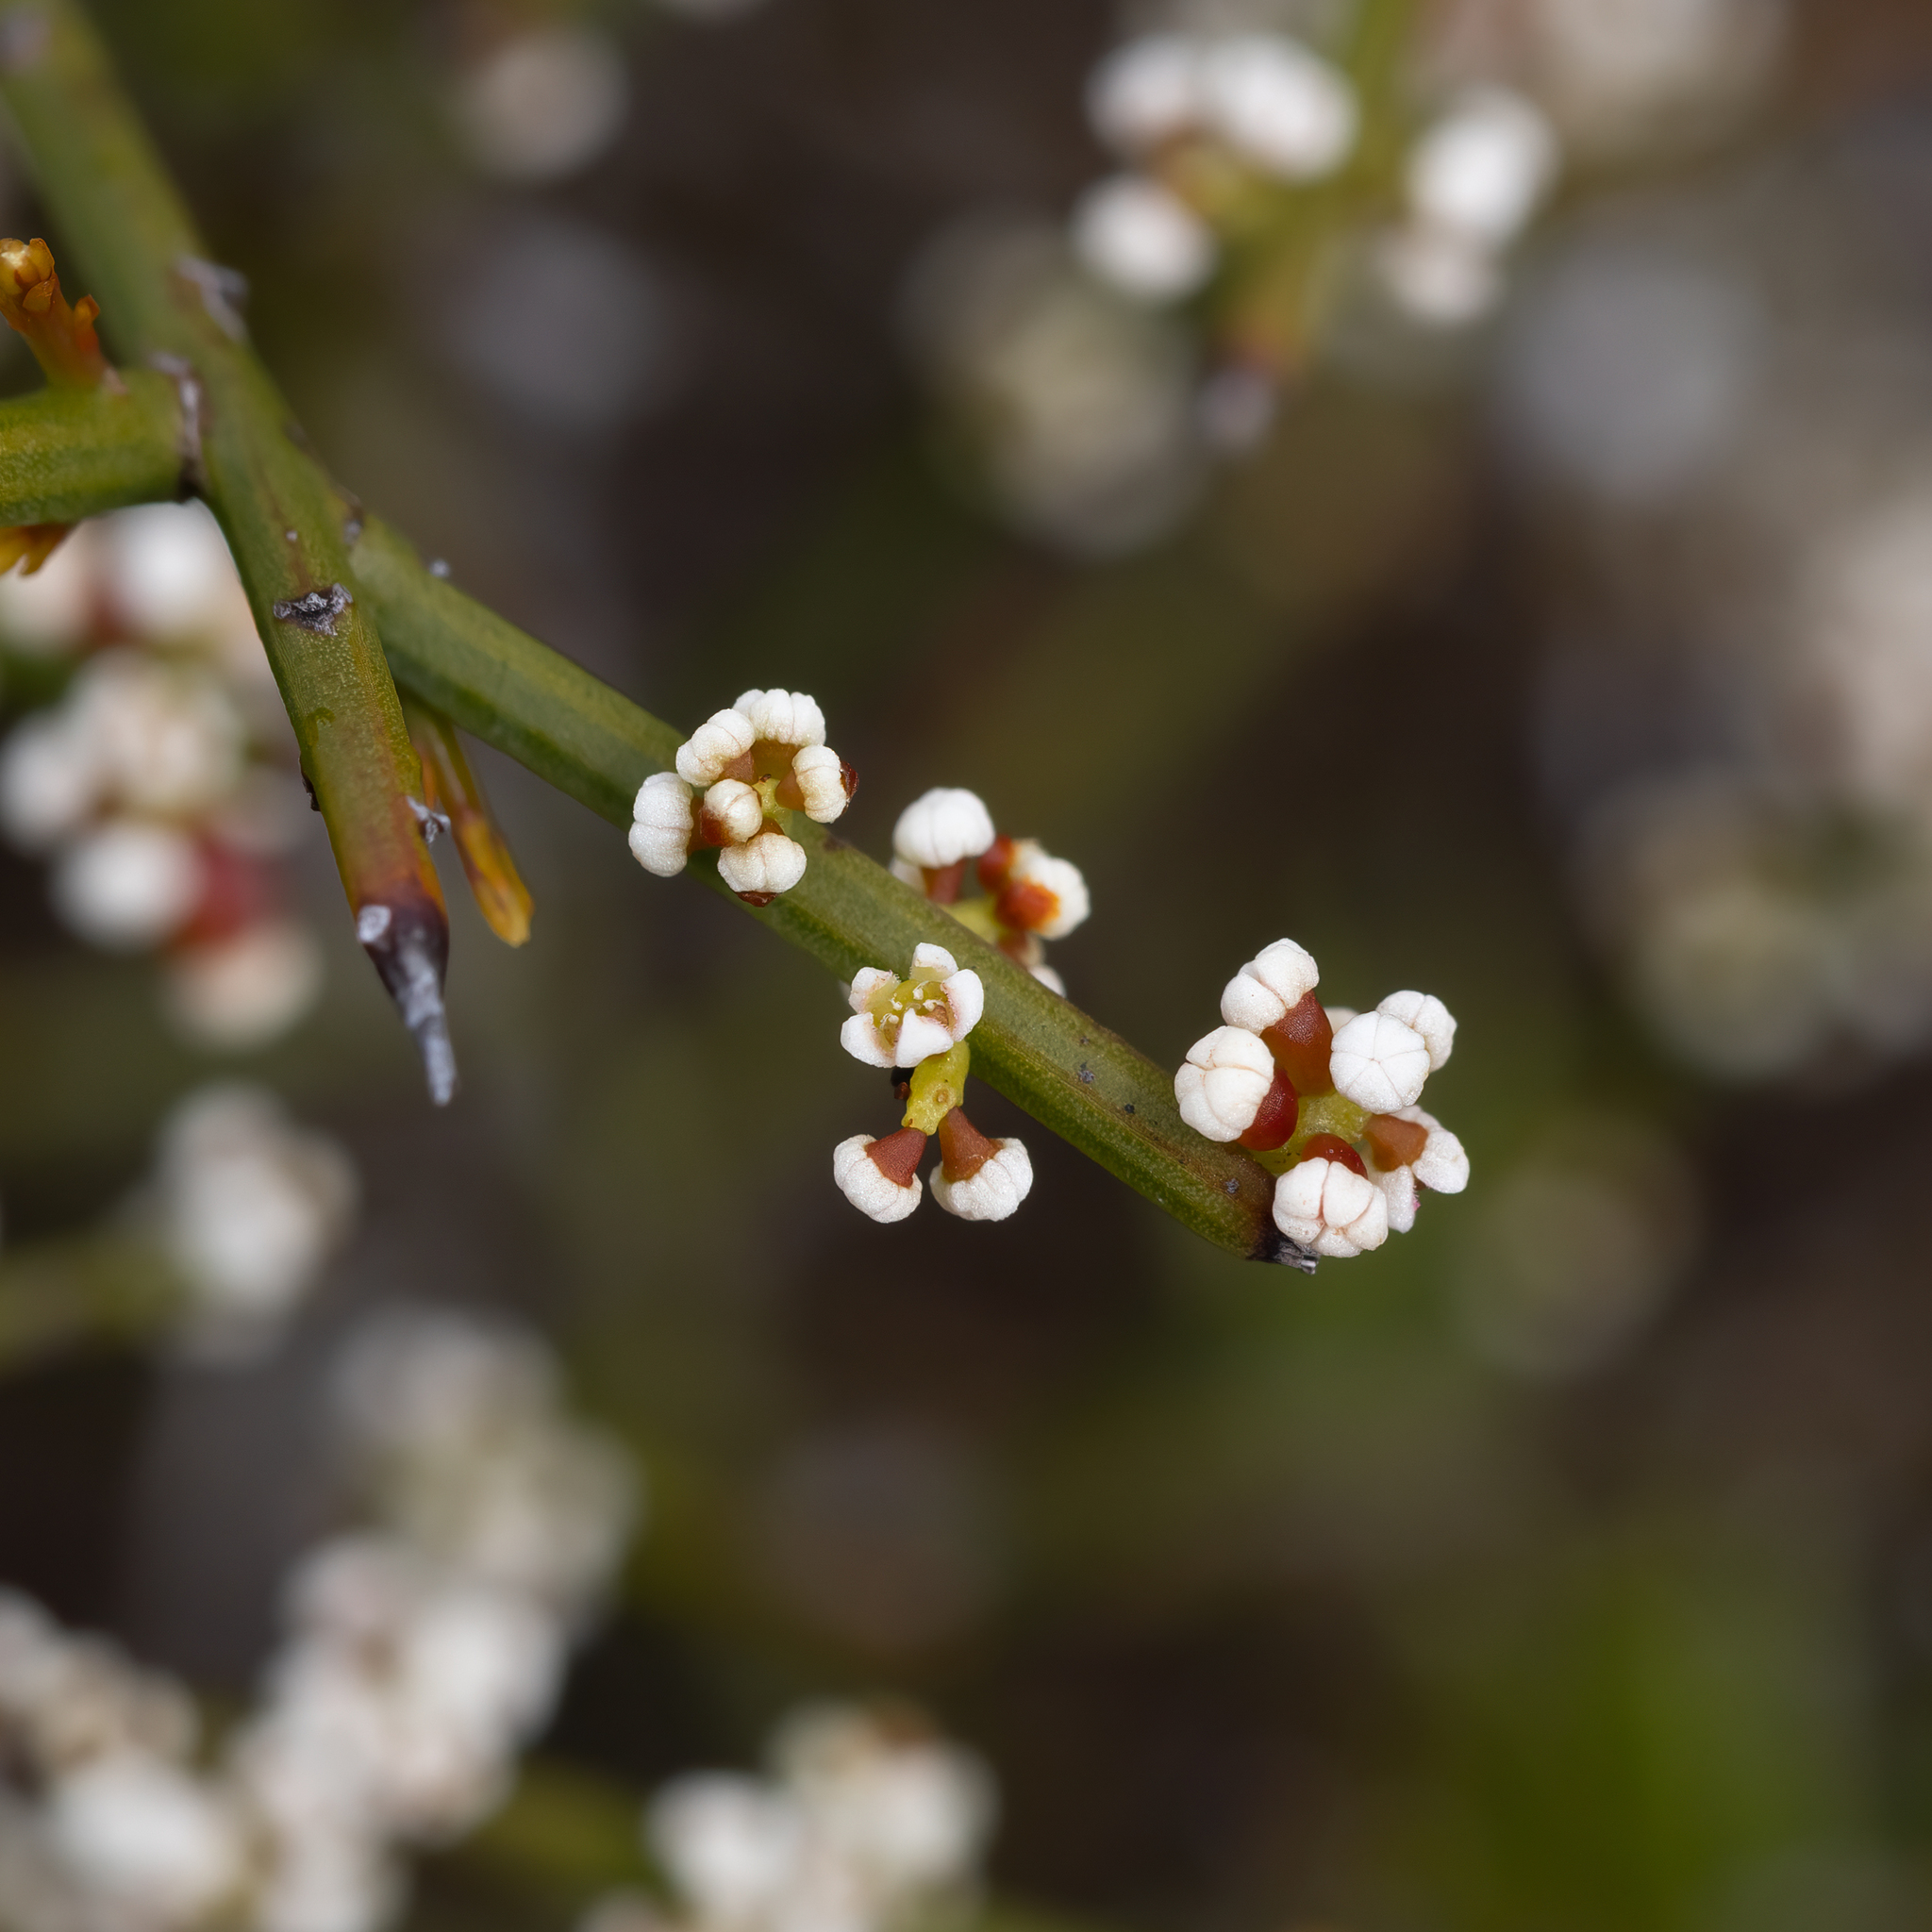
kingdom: Plantae
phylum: Tracheophyta
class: Magnoliopsida
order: Santalales
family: Amphorogynaceae
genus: Leptomeria
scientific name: Leptomeria pauciflora
